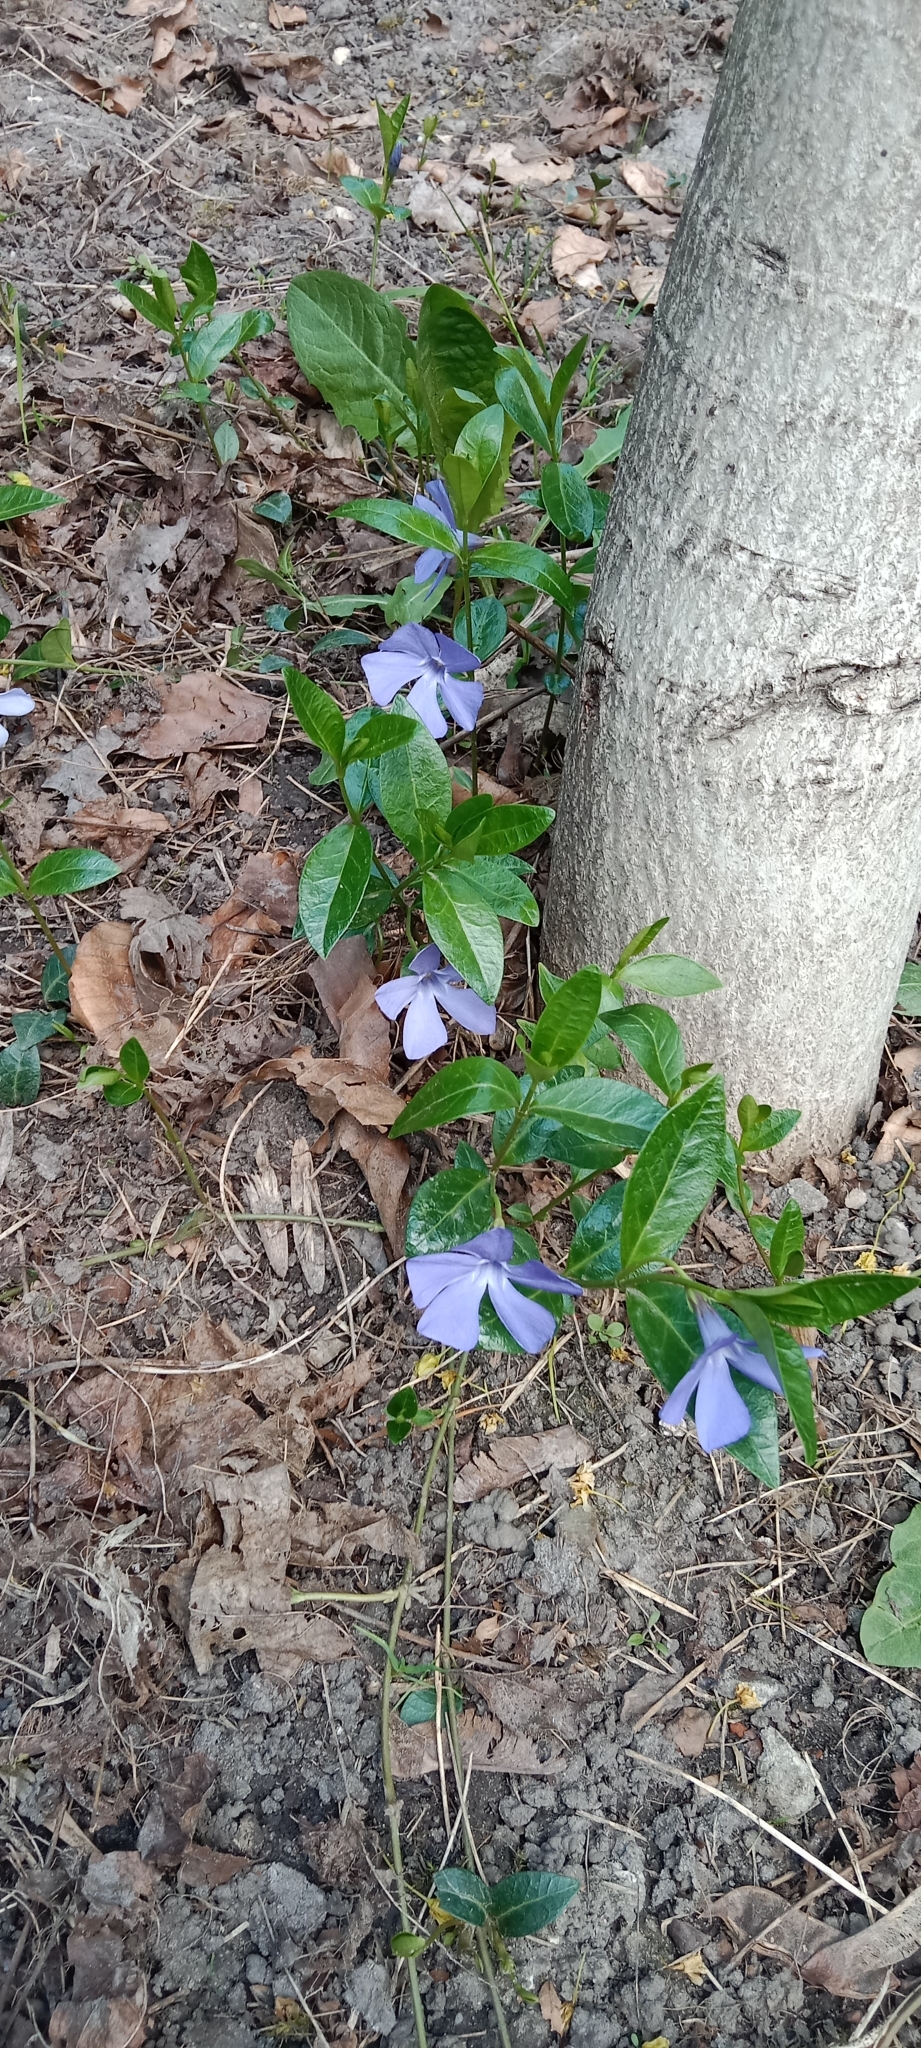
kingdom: Plantae
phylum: Tracheophyta
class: Magnoliopsida
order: Gentianales
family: Apocynaceae
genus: Vinca
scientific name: Vinca minor
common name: Lesser periwinkle
